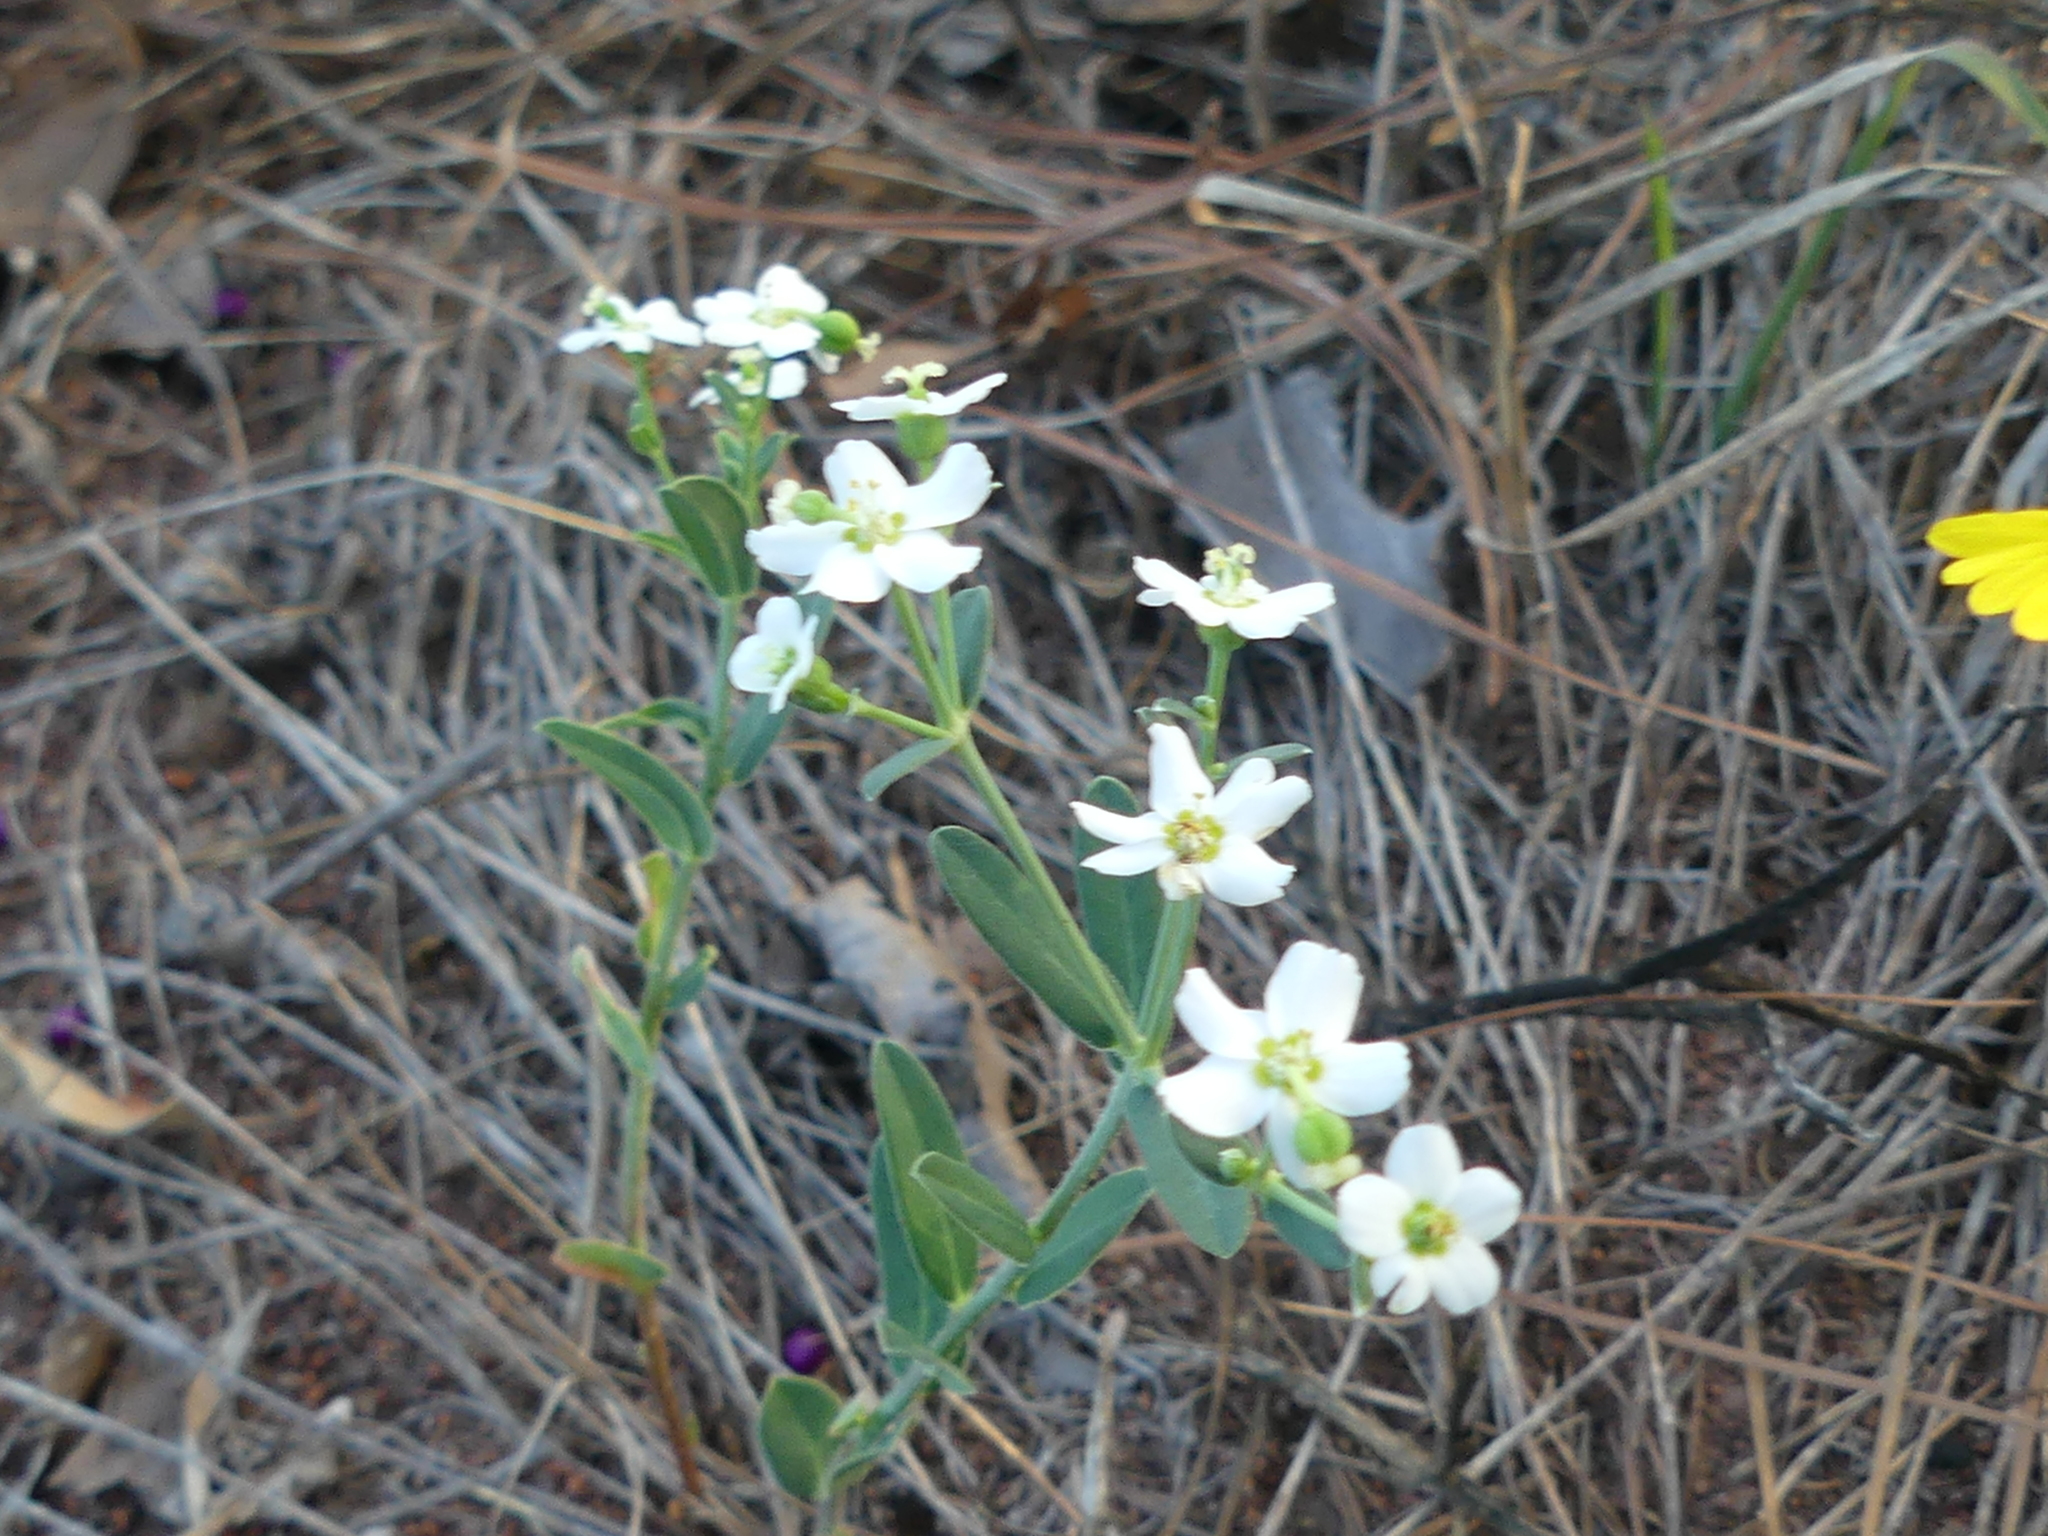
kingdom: Plantae
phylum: Tracheophyta
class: Magnoliopsida
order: Malpighiales
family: Euphorbiaceae
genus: Euphorbia
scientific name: Euphorbia corollata
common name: Flowering spurge
